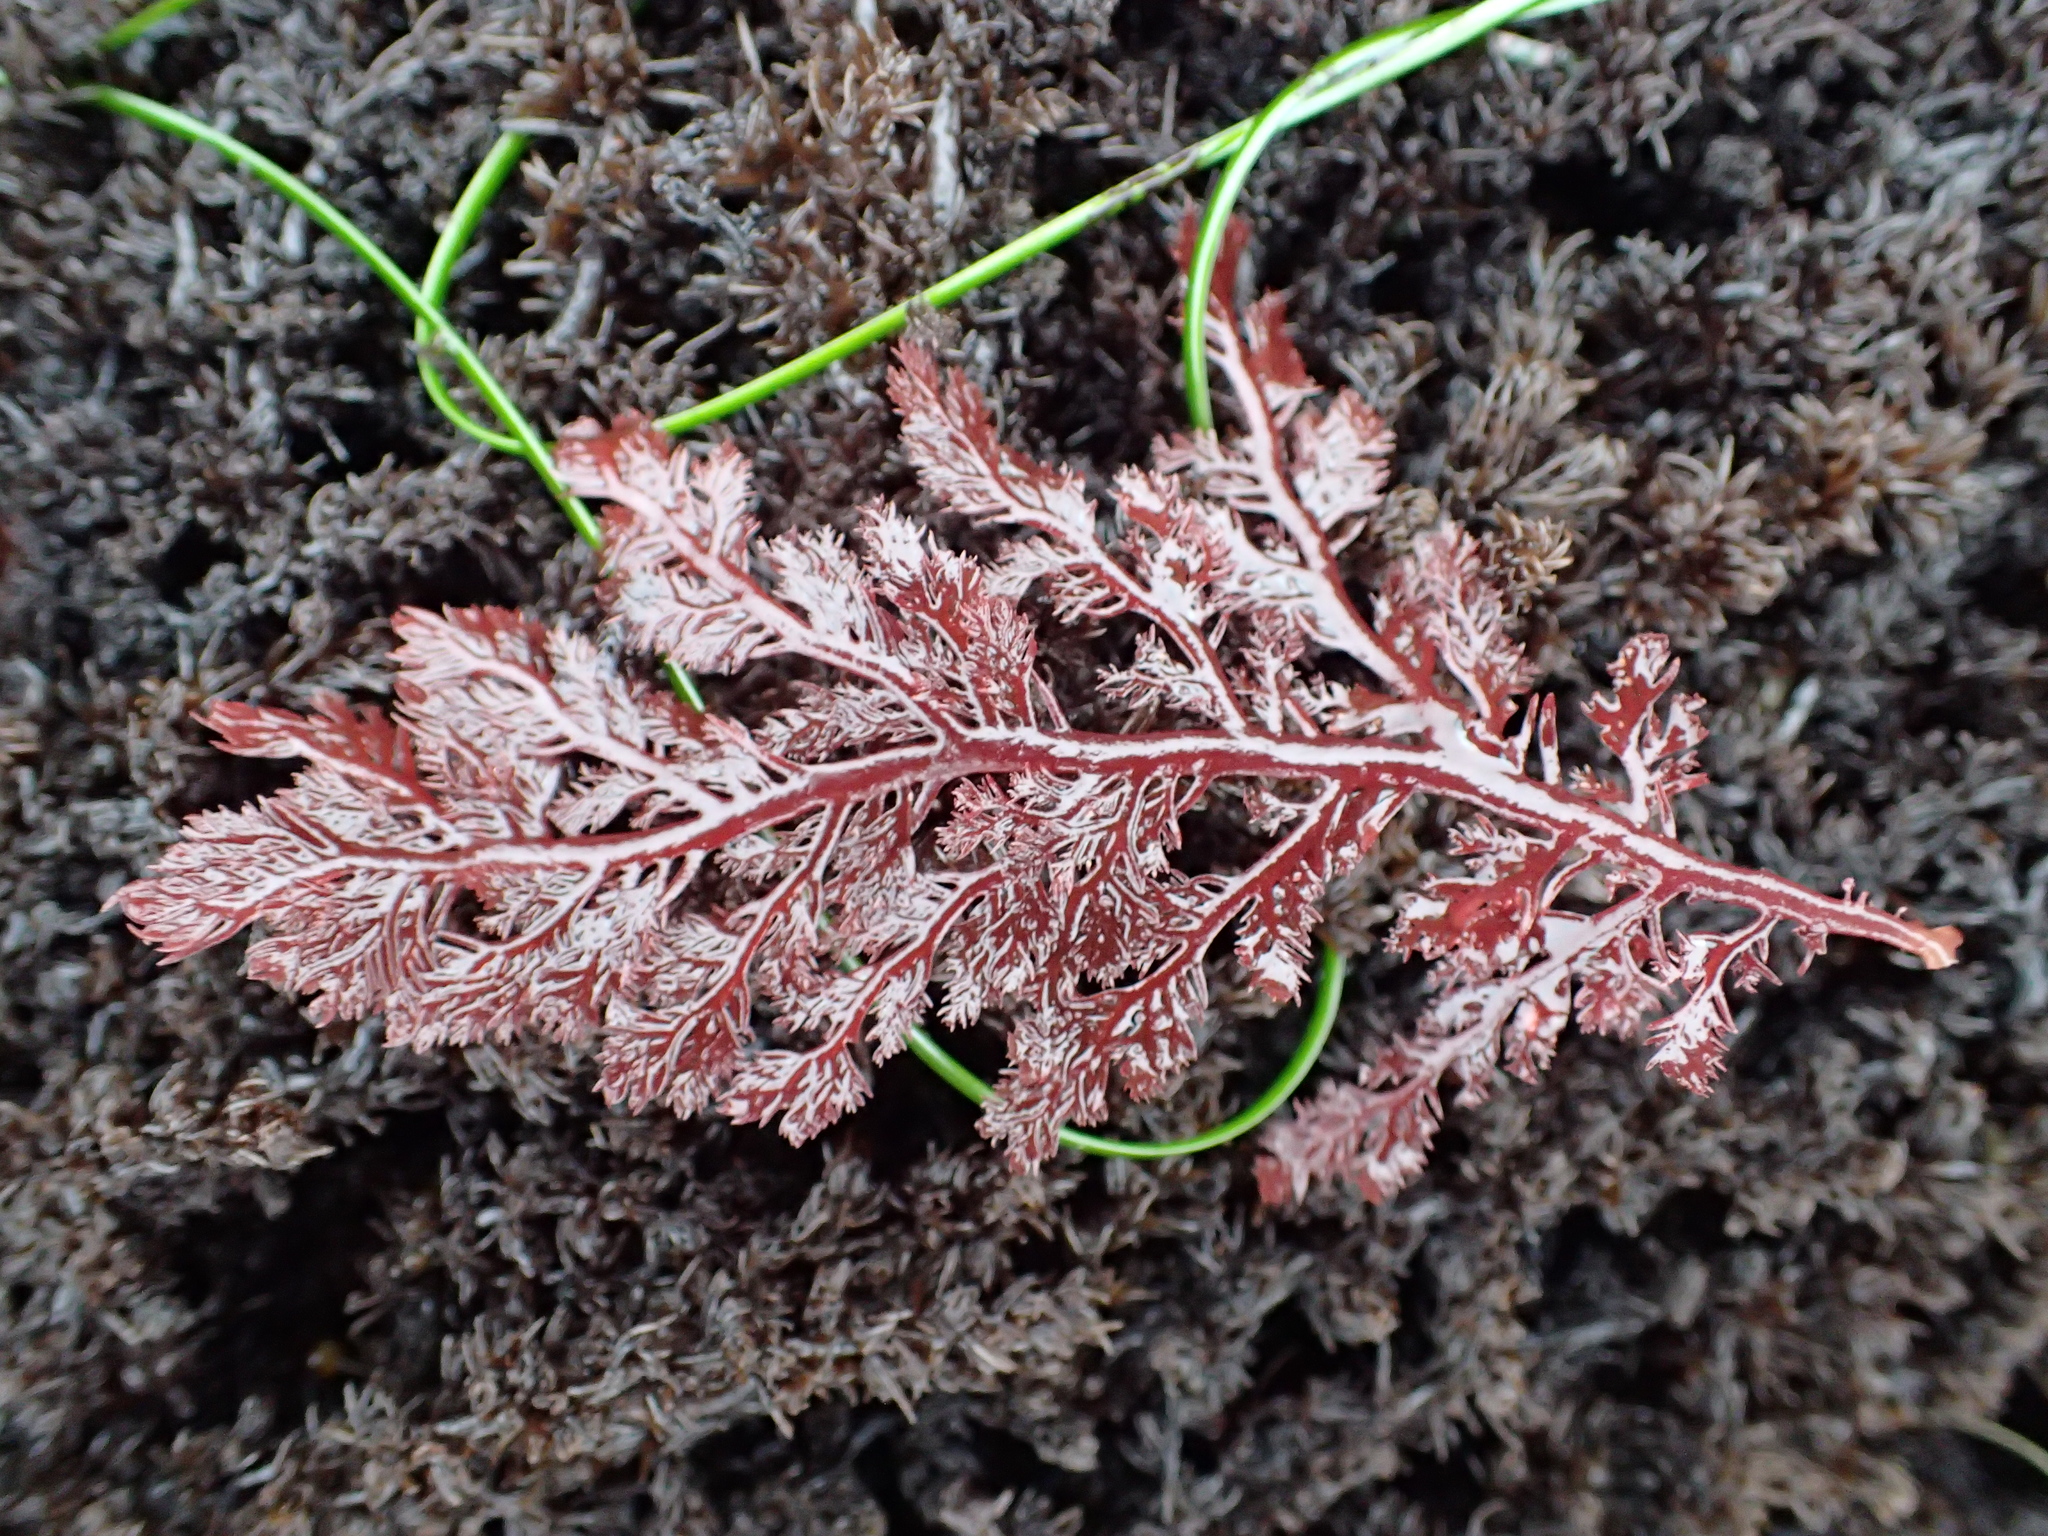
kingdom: Plantae
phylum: Rhodophyta
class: Florideophyceae
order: Plocamiales
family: Plocamiaceae
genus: Plocamium
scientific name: Plocamium cartilagineum
